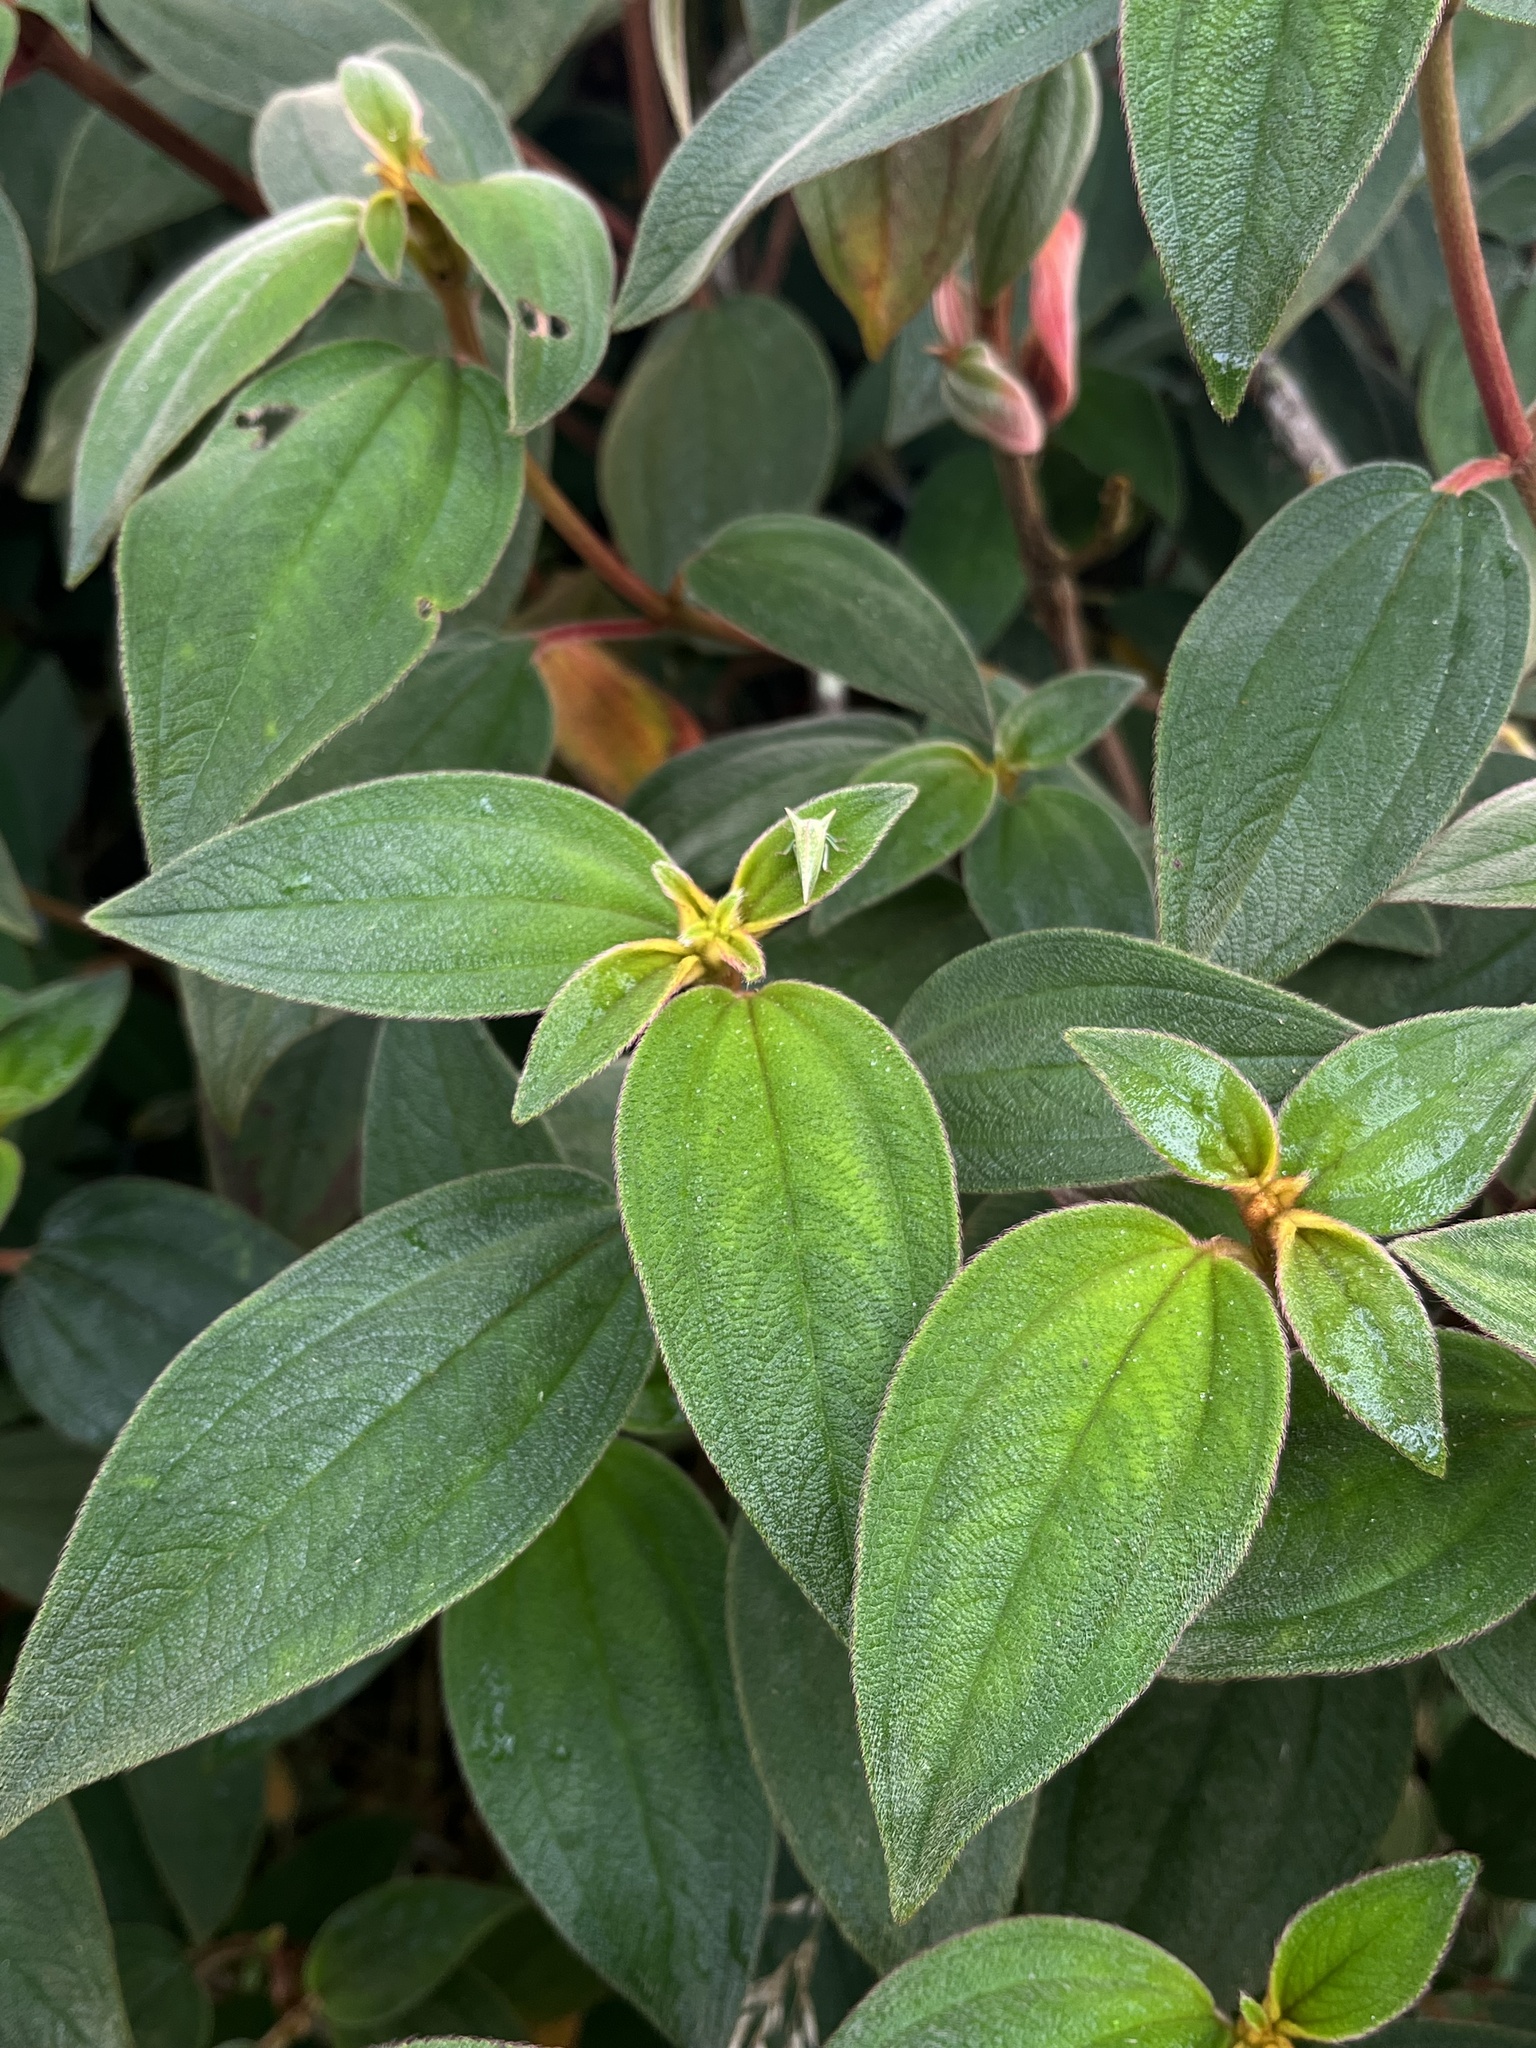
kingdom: Plantae
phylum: Tracheophyta
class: Magnoliopsida
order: Myrtales
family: Melastomataceae
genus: Chaetogastra
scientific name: Chaetogastra mollis
